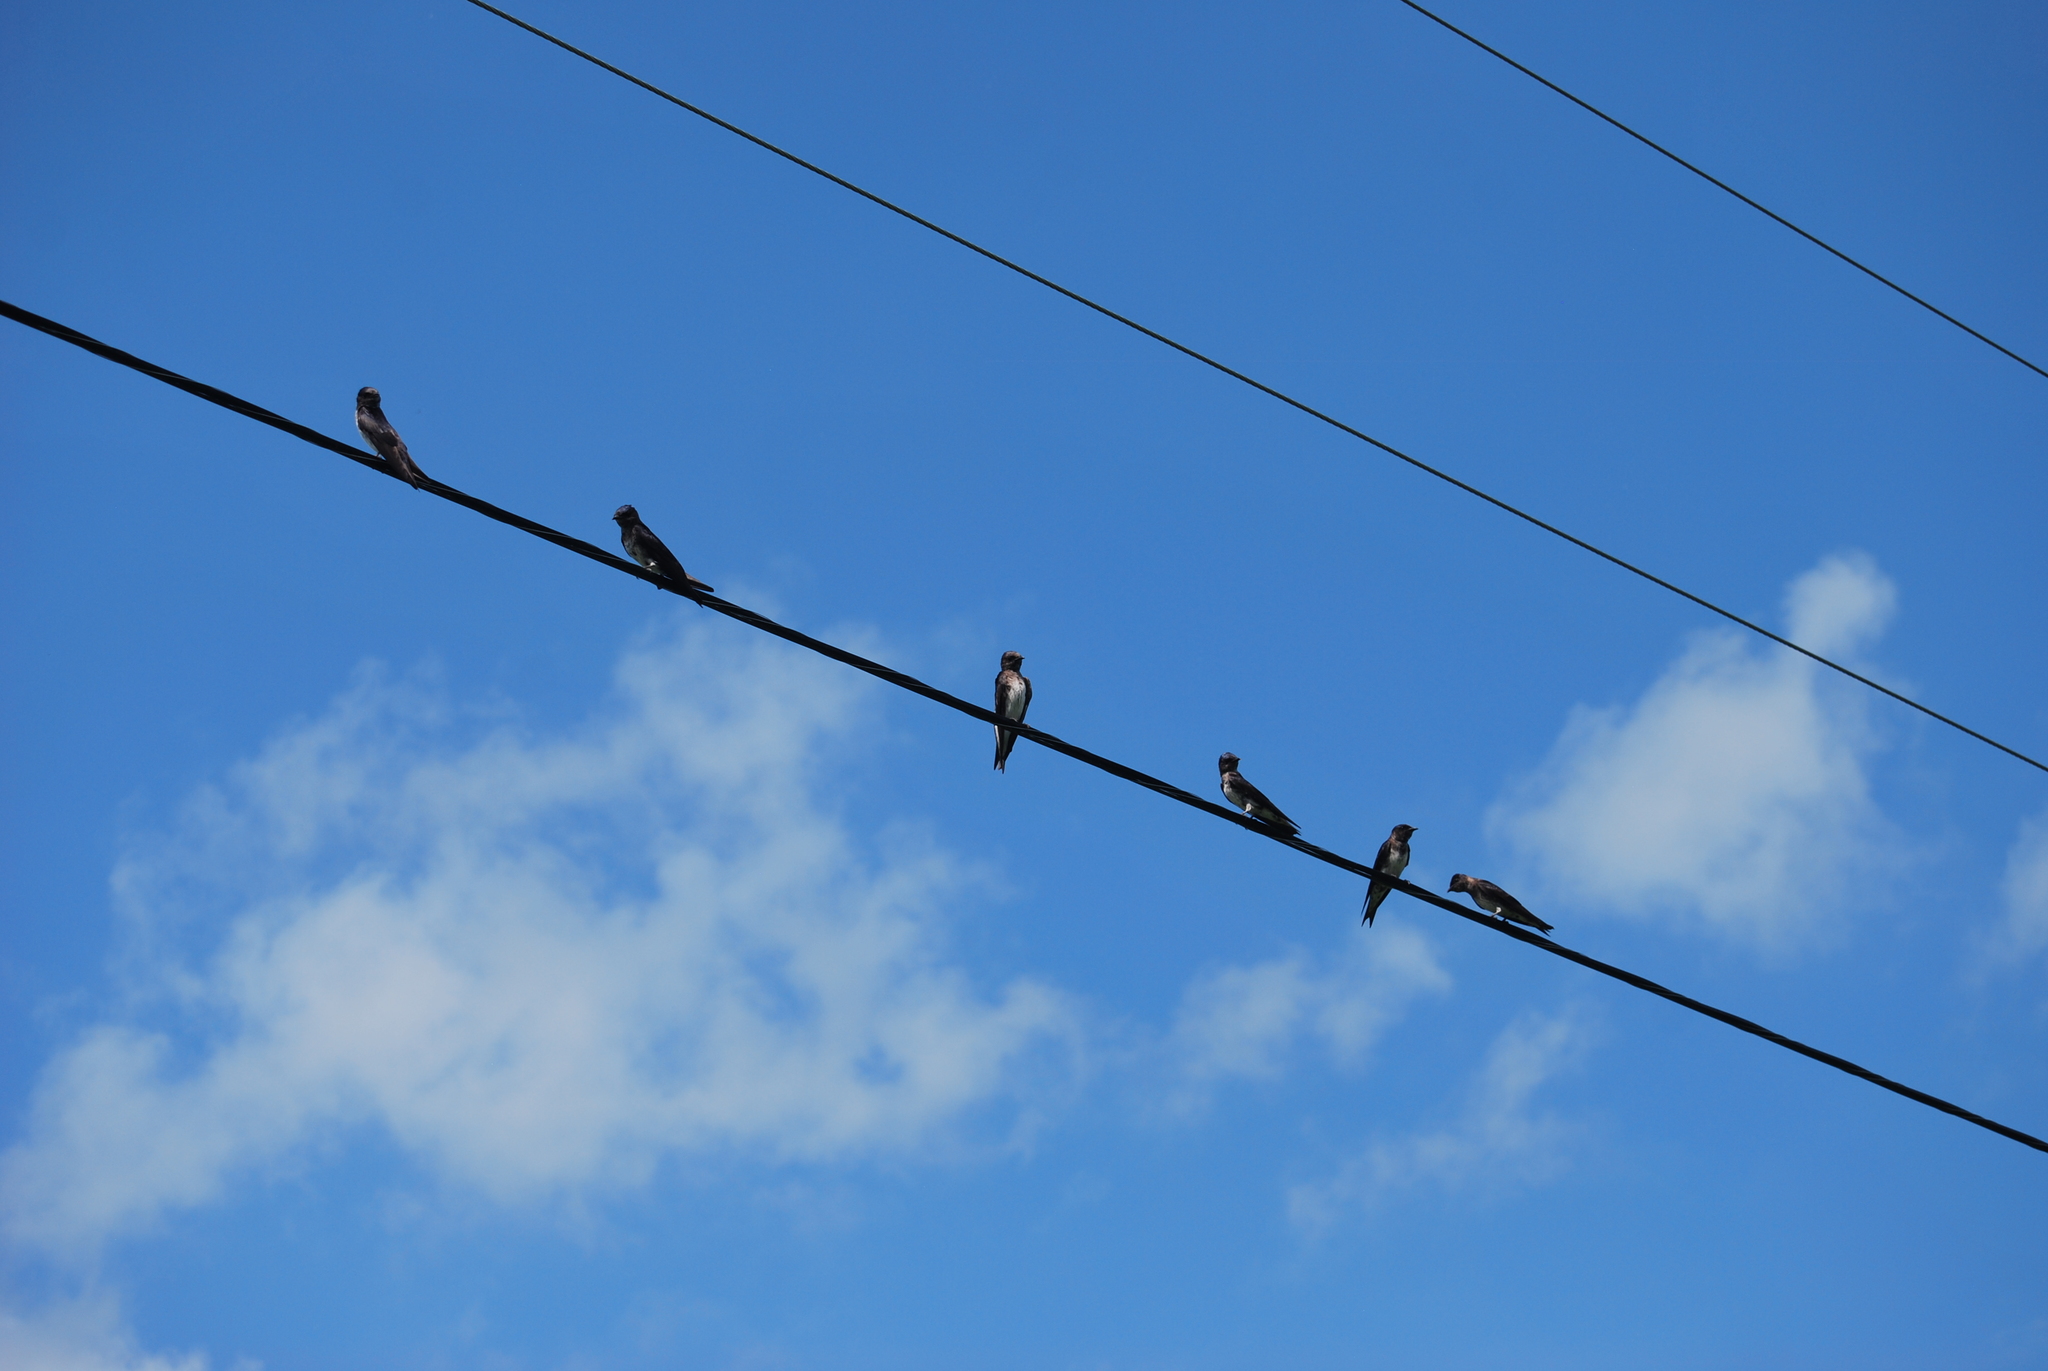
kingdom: Animalia
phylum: Chordata
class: Aves
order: Passeriformes
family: Hirundinidae
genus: Progne
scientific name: Progne subis
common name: Purple martin
